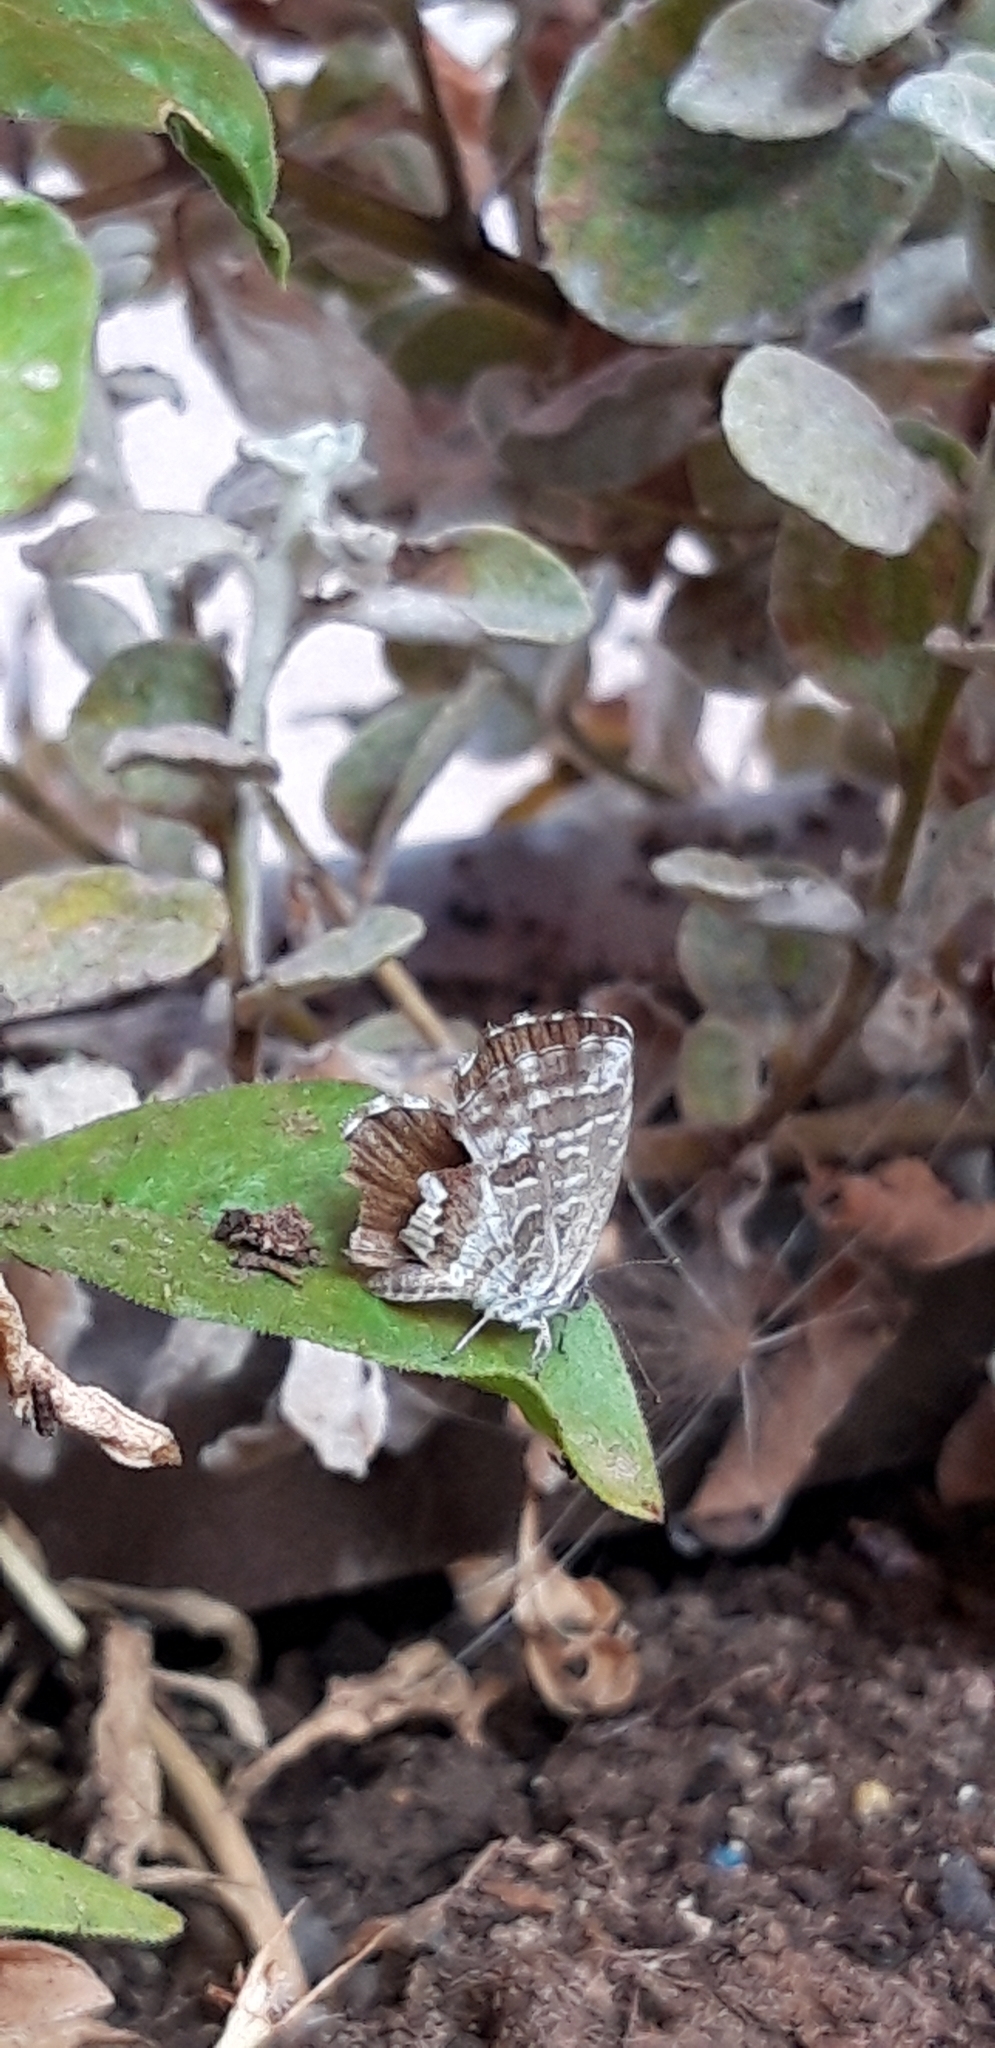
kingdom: Animalia
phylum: Arthropoda
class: Insecta
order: Lepidoptera
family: Lycaenidae
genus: Cacyreus
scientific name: Cacyreus marshalli
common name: Geranium bronze
